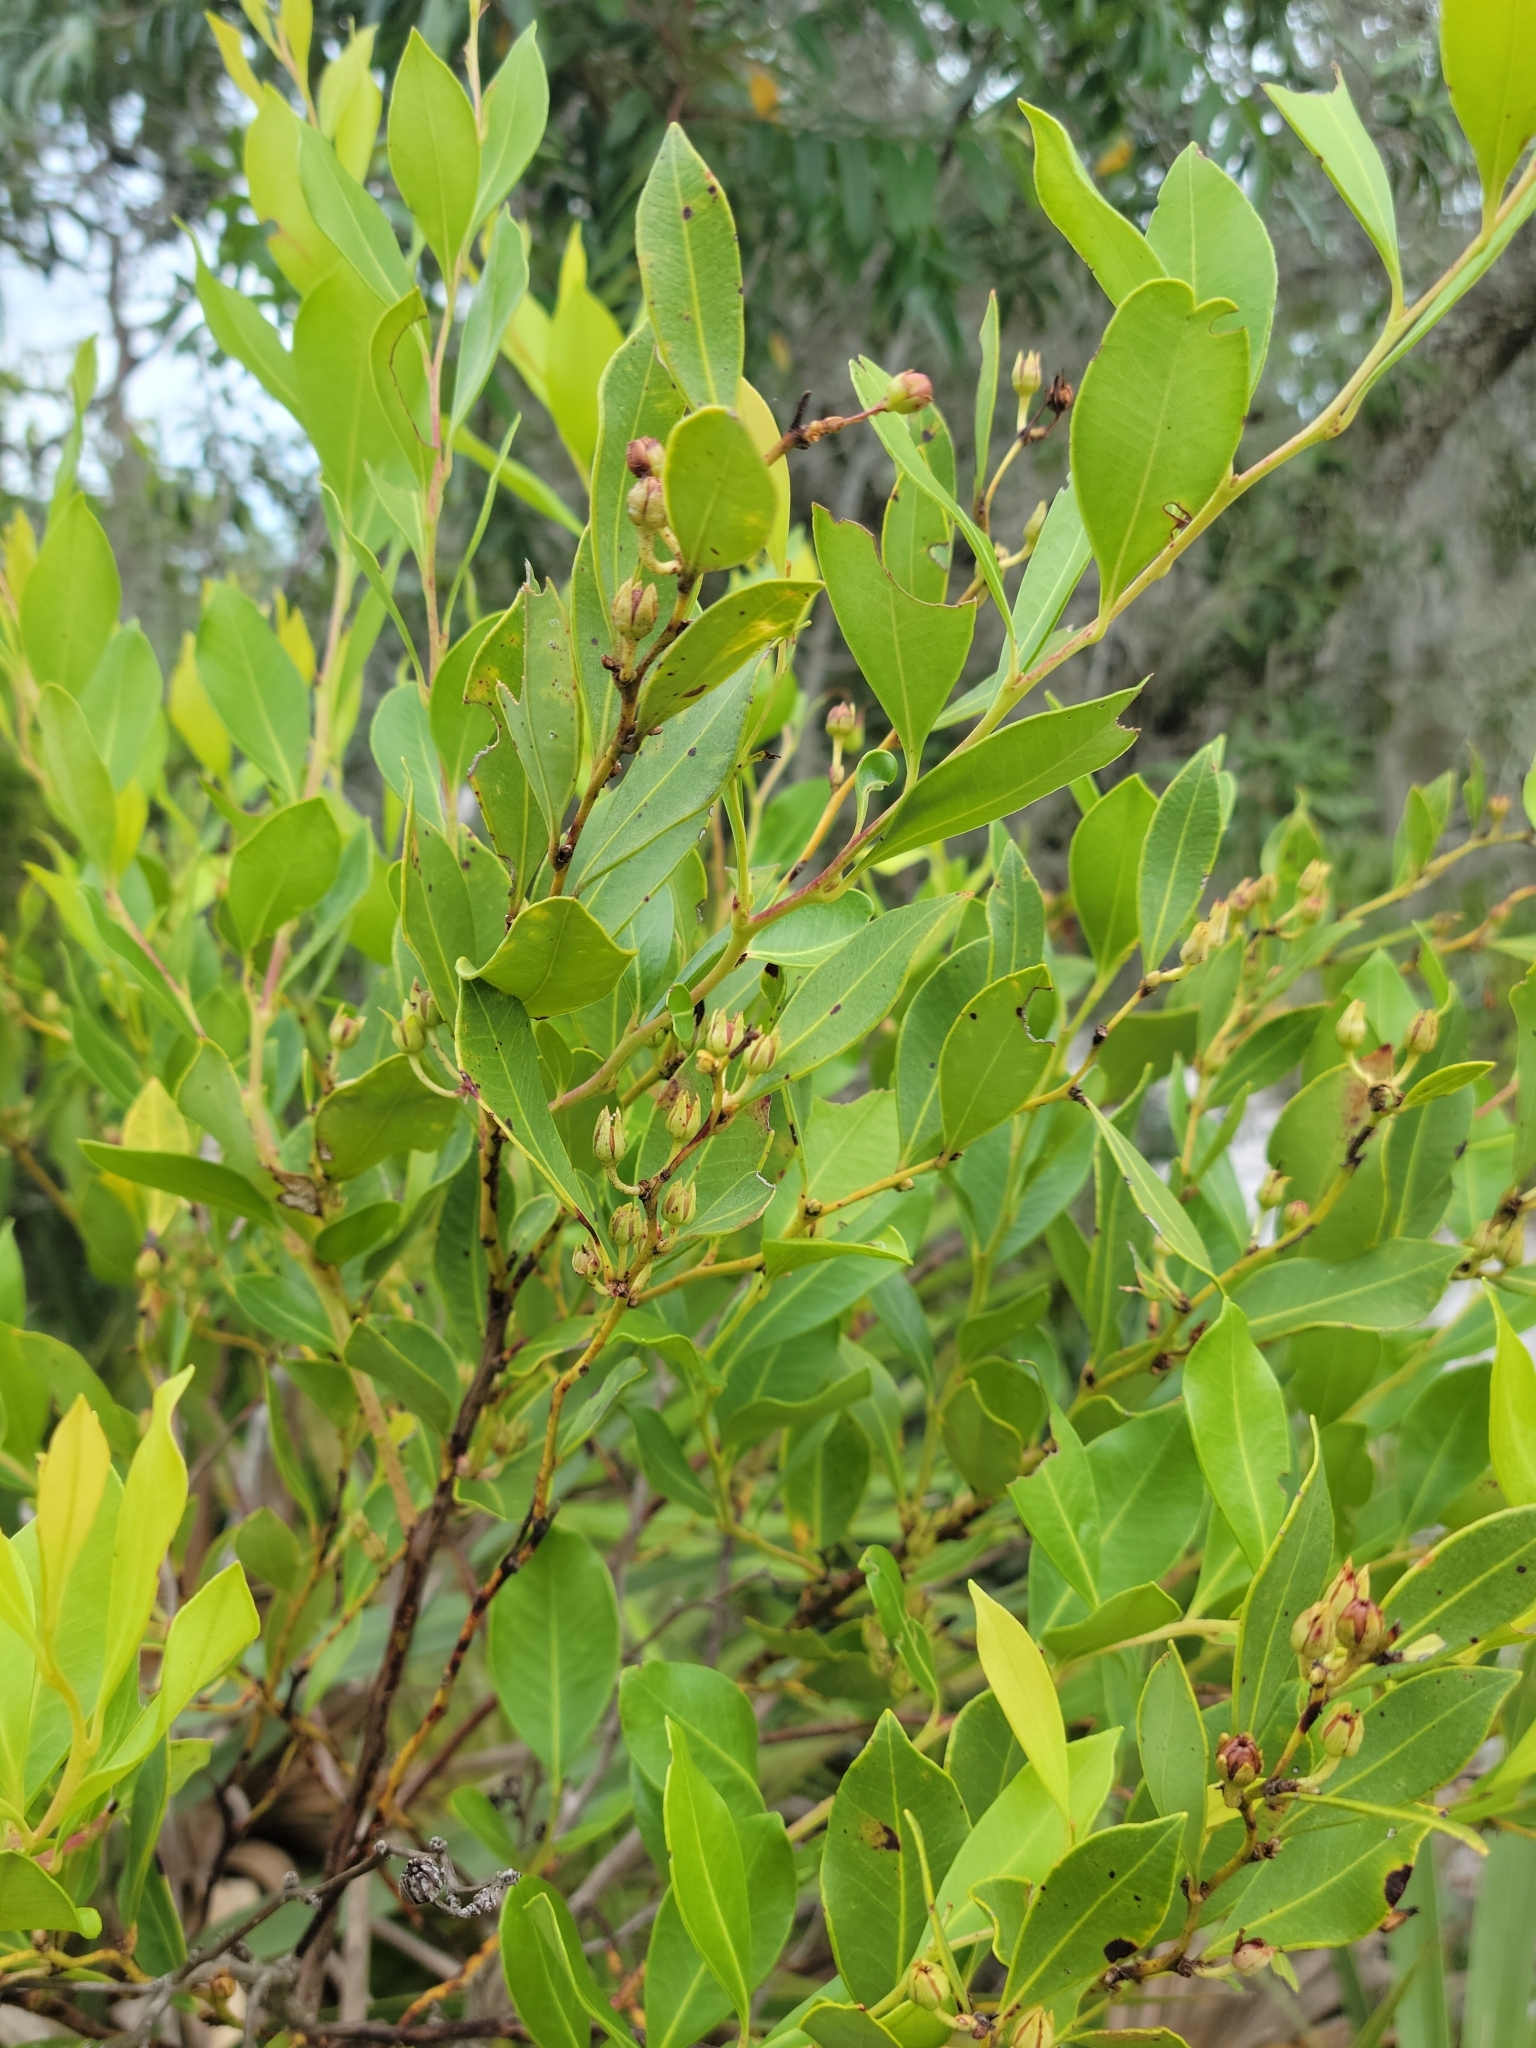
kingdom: Plantae
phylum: Tracheophyta
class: Magnoliopsida
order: Ericales
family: Ericaceae
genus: Lyonia
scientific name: Lyonia lucida
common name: Fetterbush
